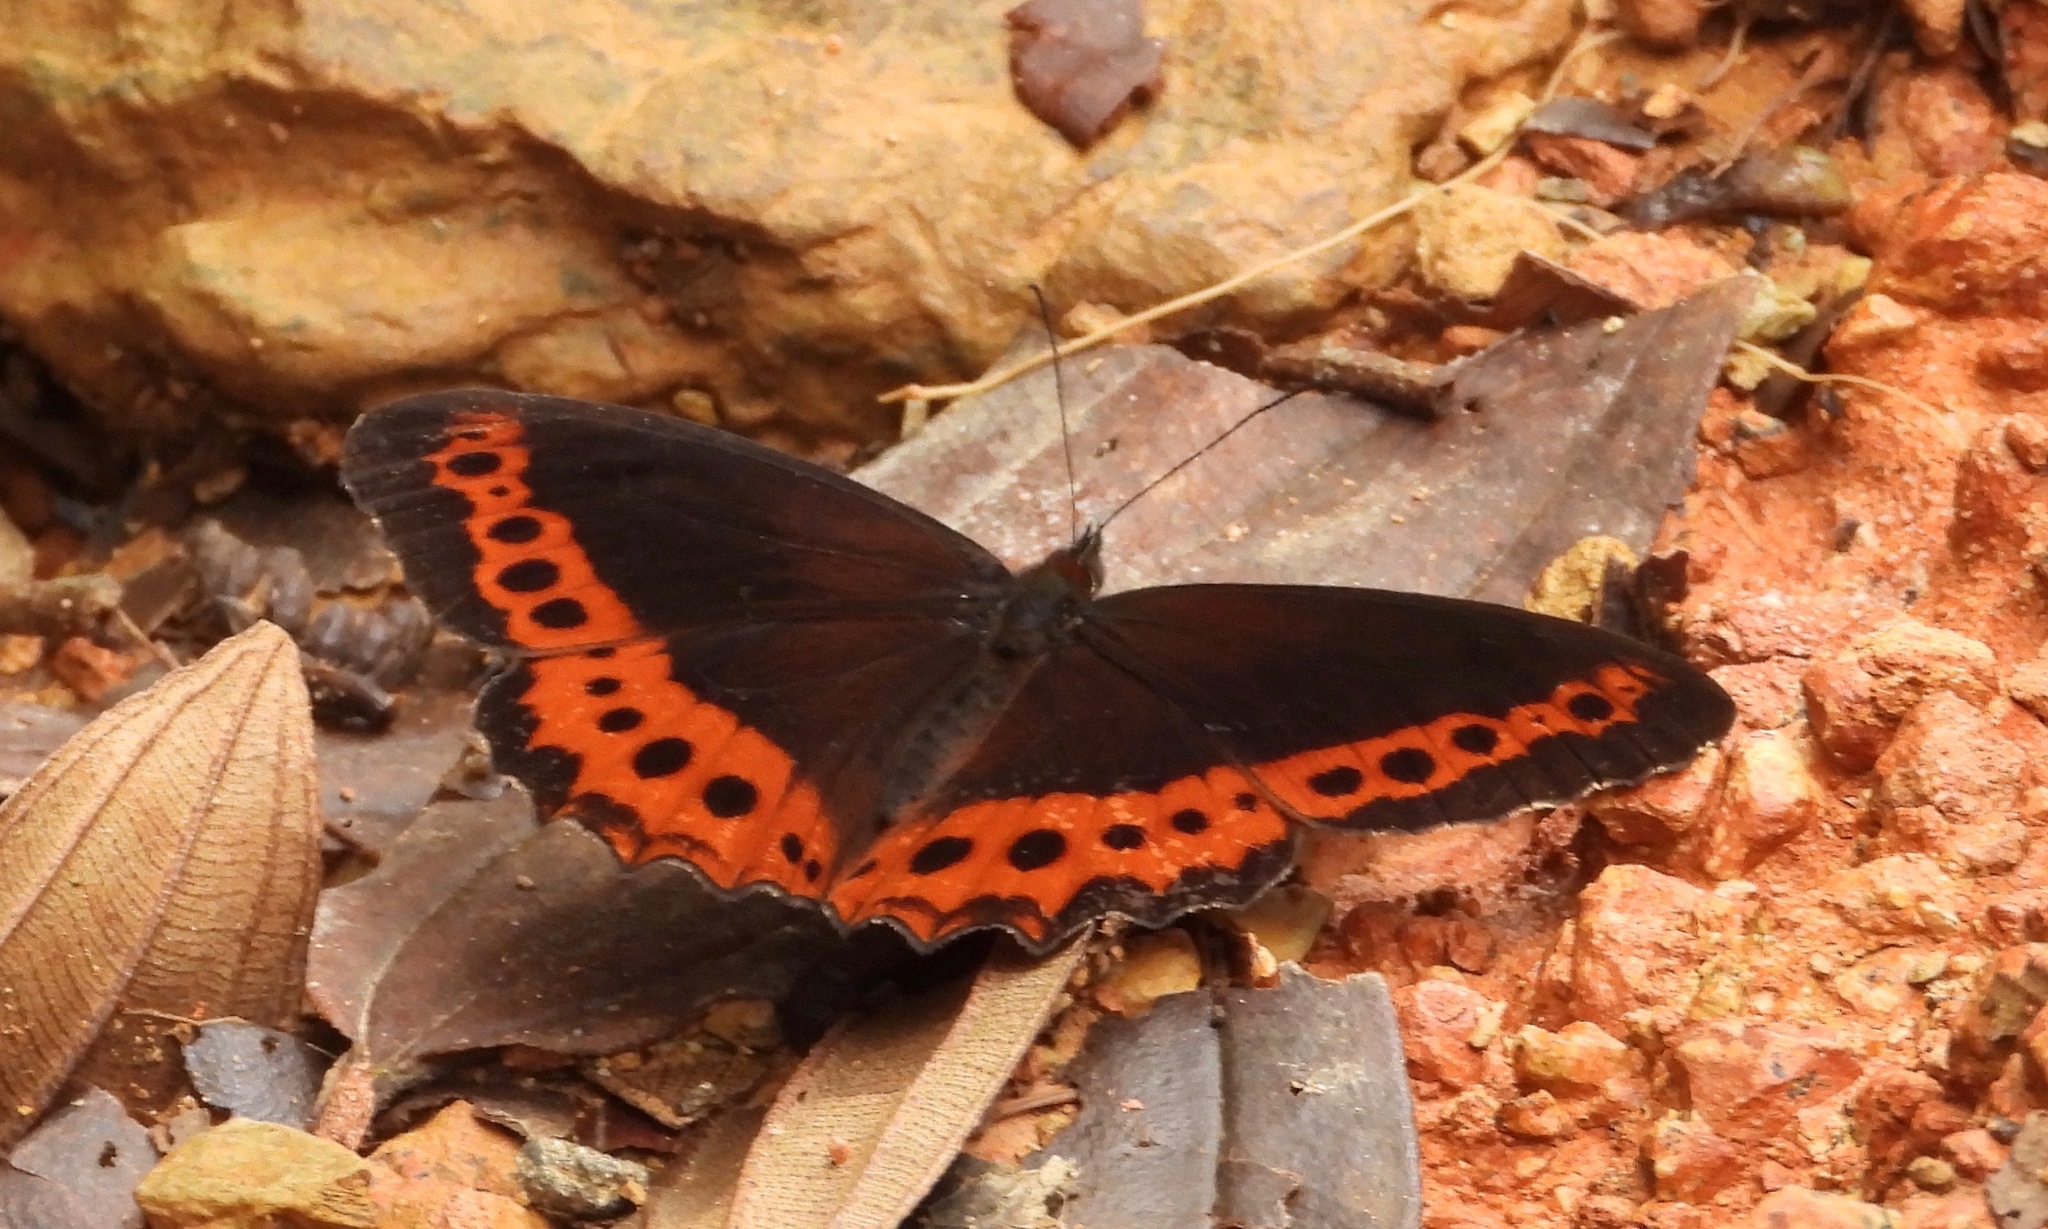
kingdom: Animalia
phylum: Arthropoda
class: Insecta
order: Lepidoptera
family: Nymphalidae
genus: Oxeoschistus
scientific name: Oxeoschistus puerta
